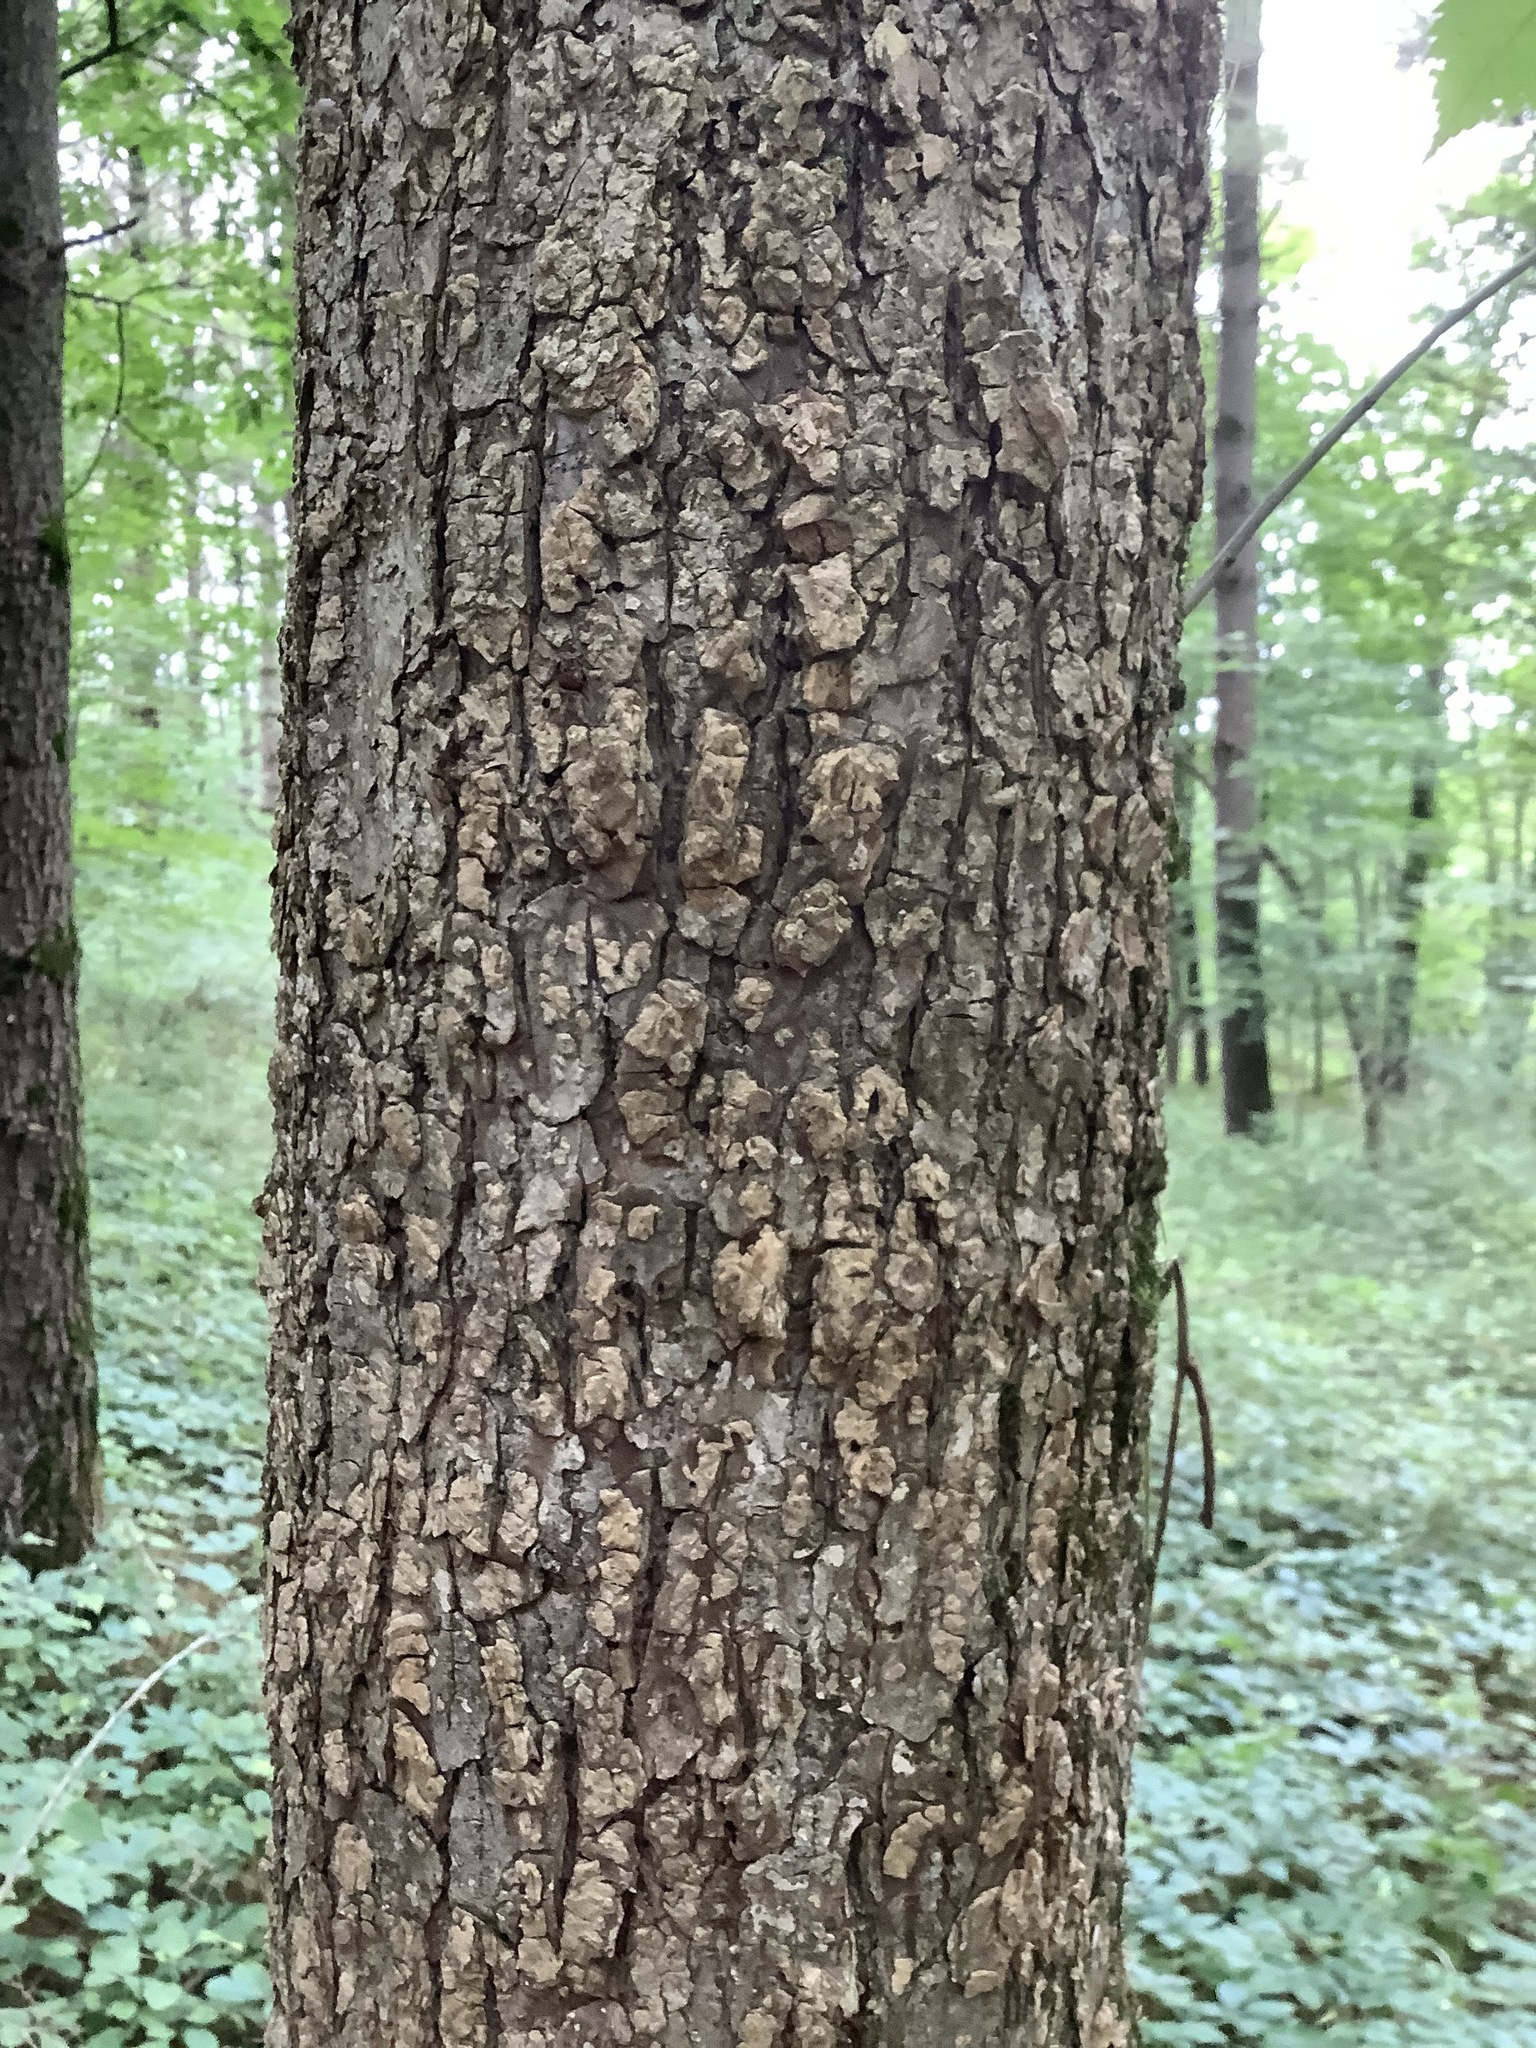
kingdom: Plantae
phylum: Tracheophyta
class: Magnoliopsida
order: Rosales
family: Ulmaceae
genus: Ulmus
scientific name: Ulmus americana
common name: American elm
